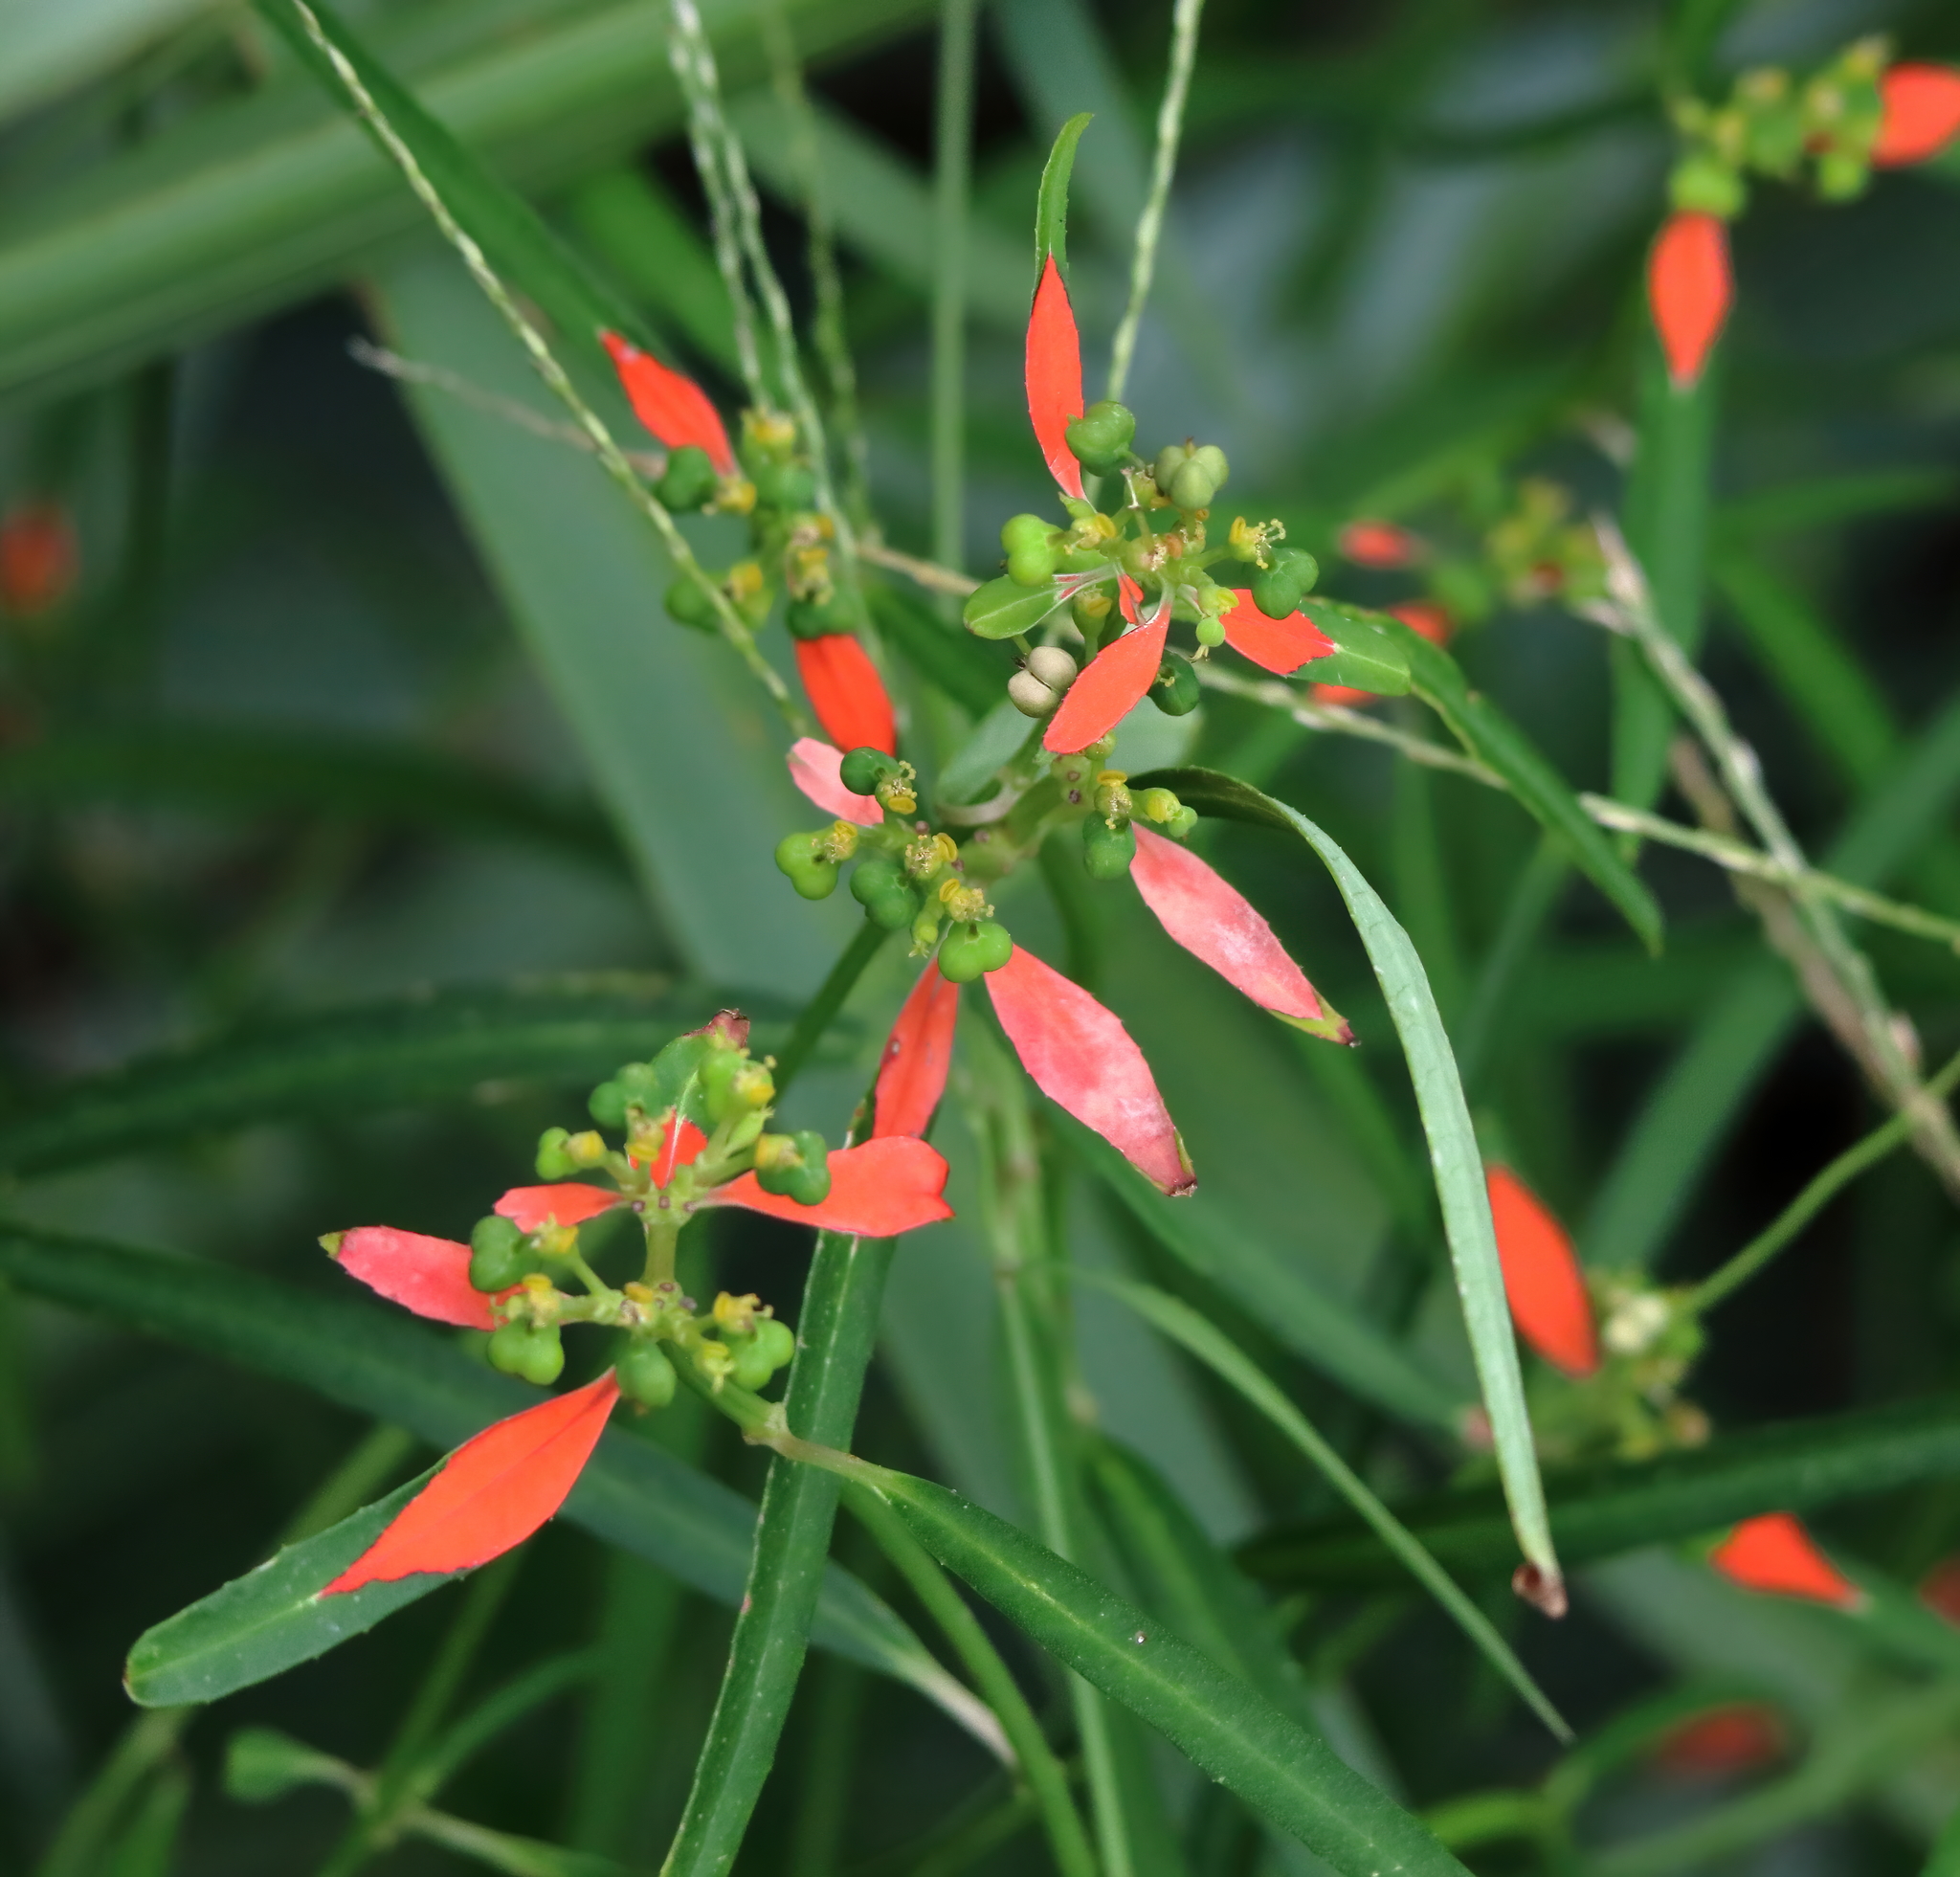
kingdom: Plantae
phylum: Tracheophyta
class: Magnoliopsida
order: Malpighiales
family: Euphorbiaceae
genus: Euphorbia
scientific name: Euphorbia heterophylla
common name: Mexican fireplant
